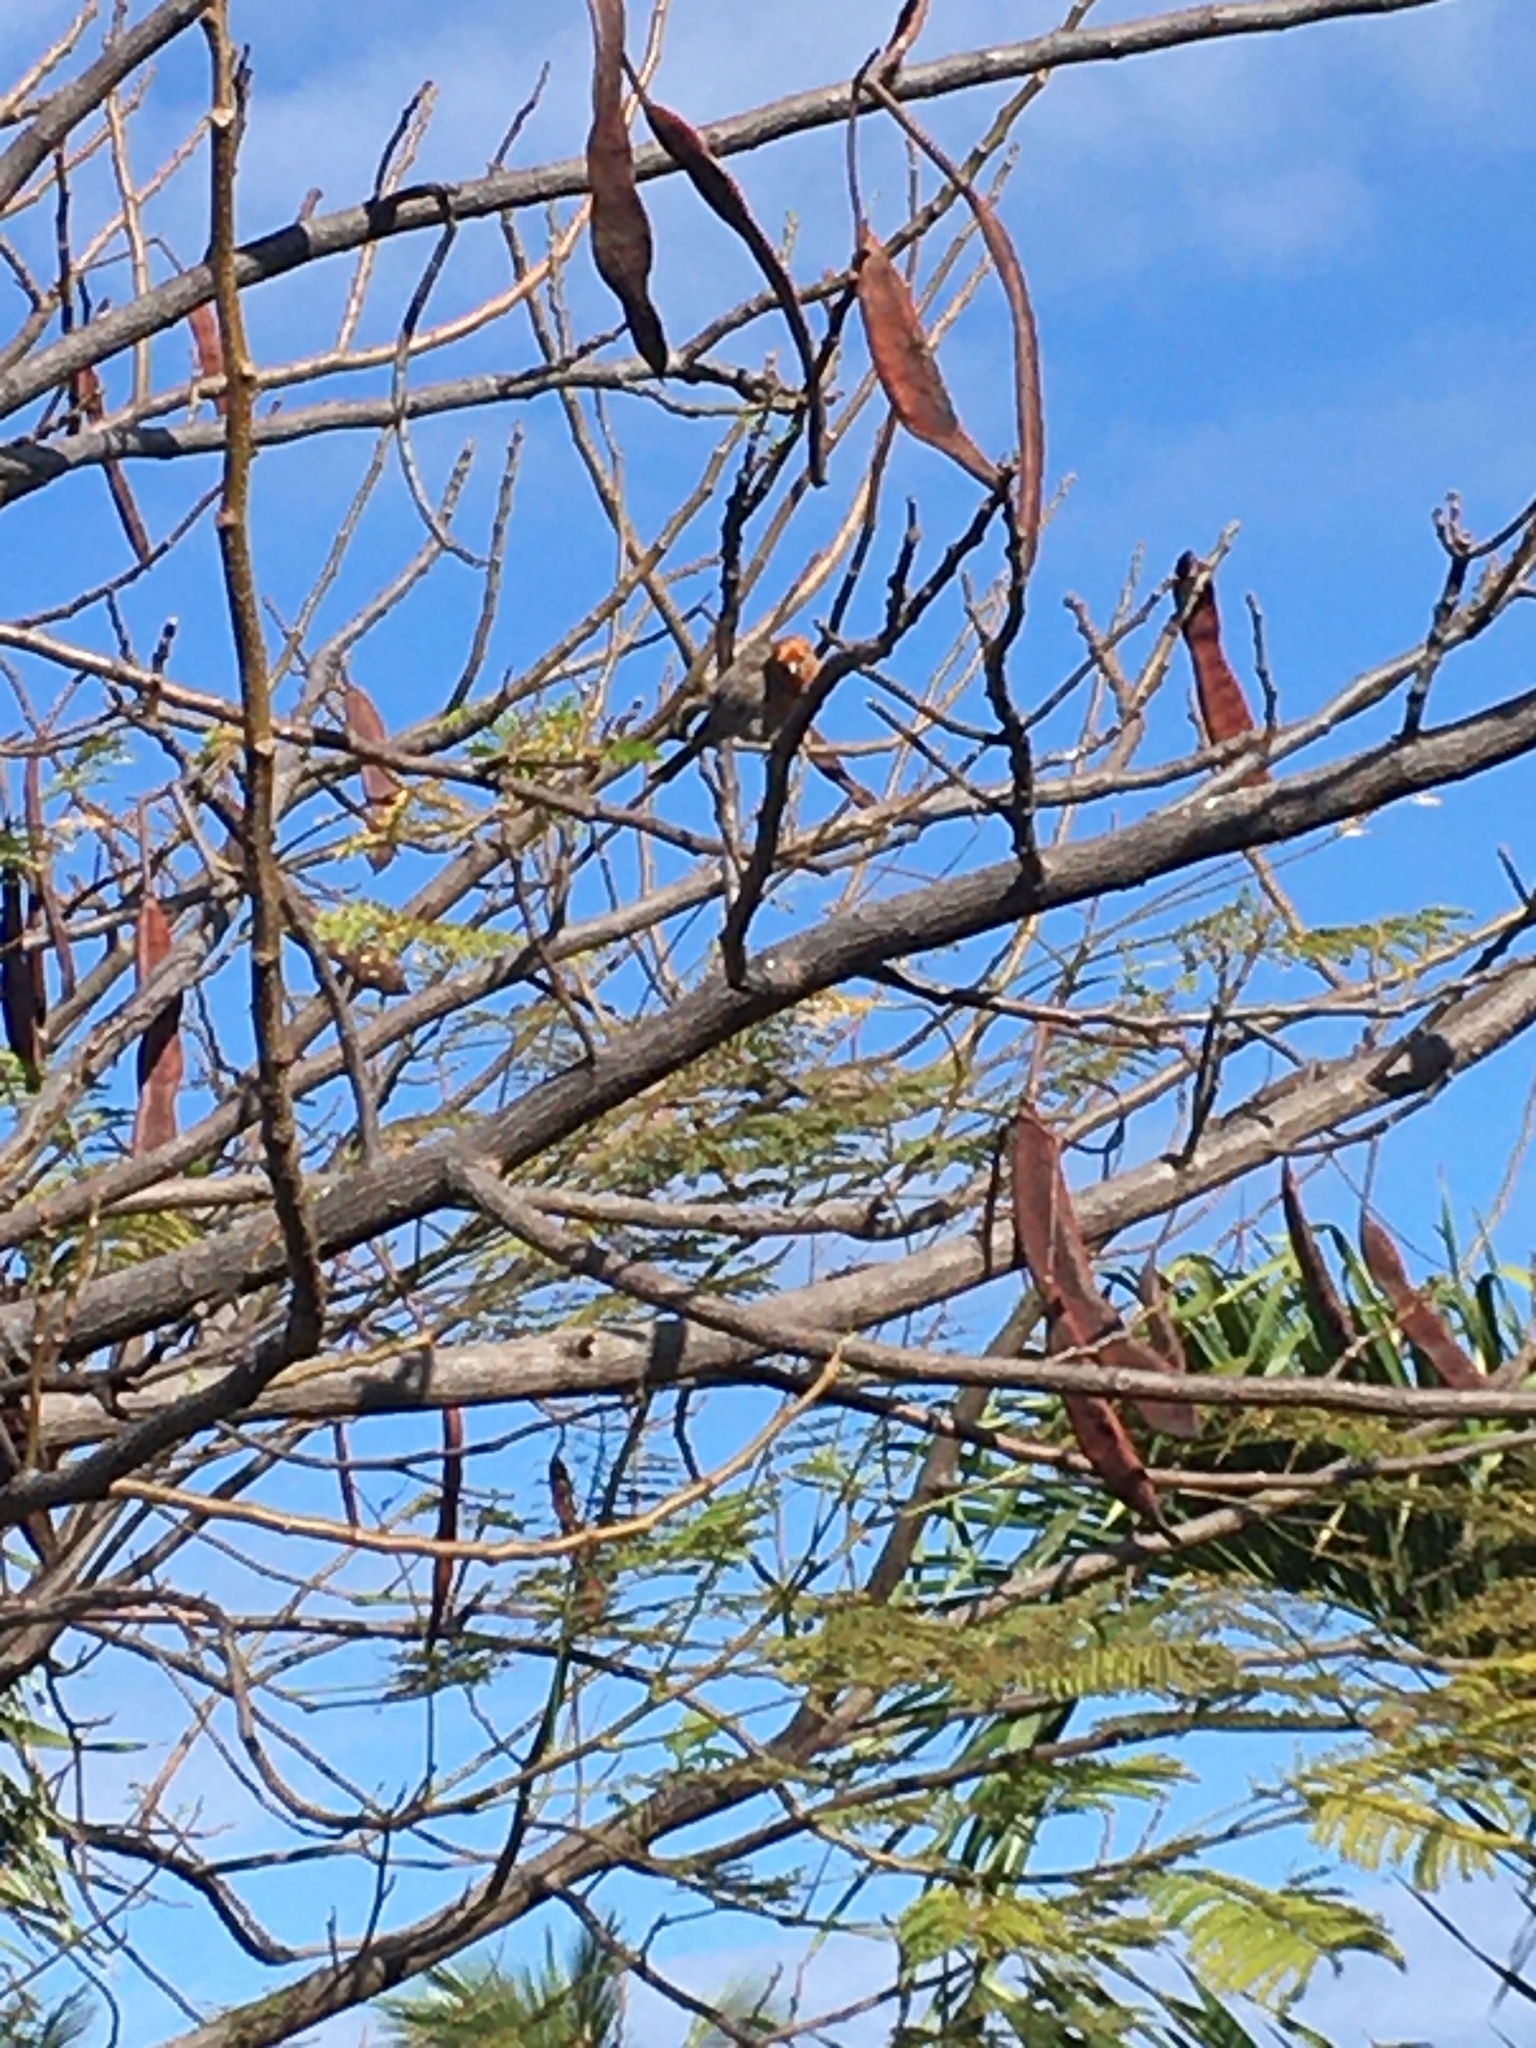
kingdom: Animalia
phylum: Chordata
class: Aves
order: Passeriformes
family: Fringillidae
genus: Haemorhous
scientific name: Haemorhous mexicanus
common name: House finch
